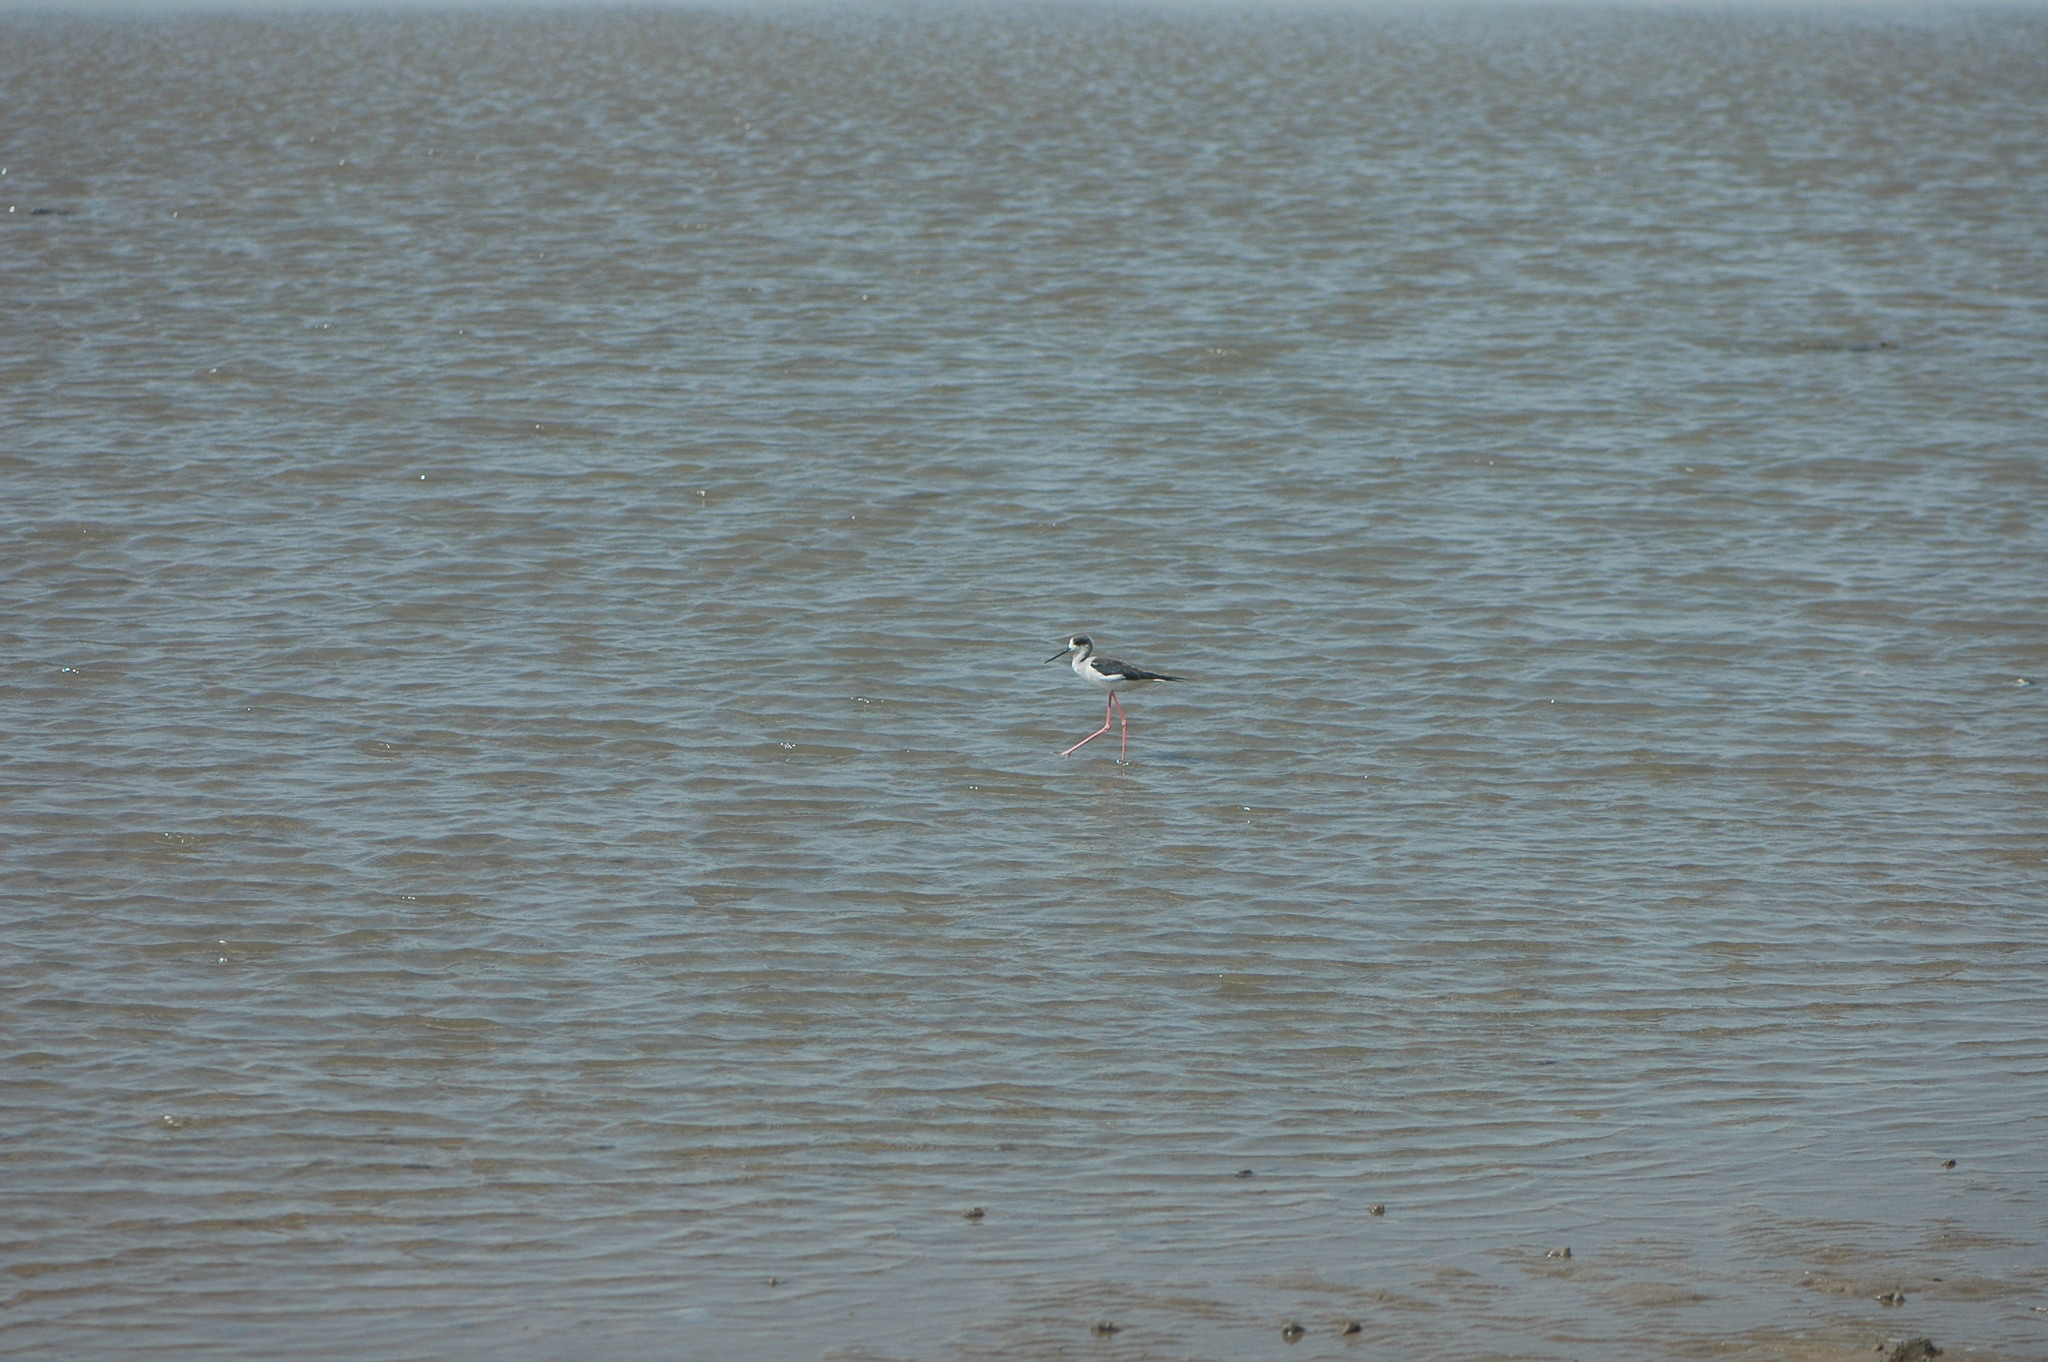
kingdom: Animalia
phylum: Chordata
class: Aves
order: Charadriiformes
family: Recurvirostridae
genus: Himantopus
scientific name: Himantopus himantopus
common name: Black-winged stilt
